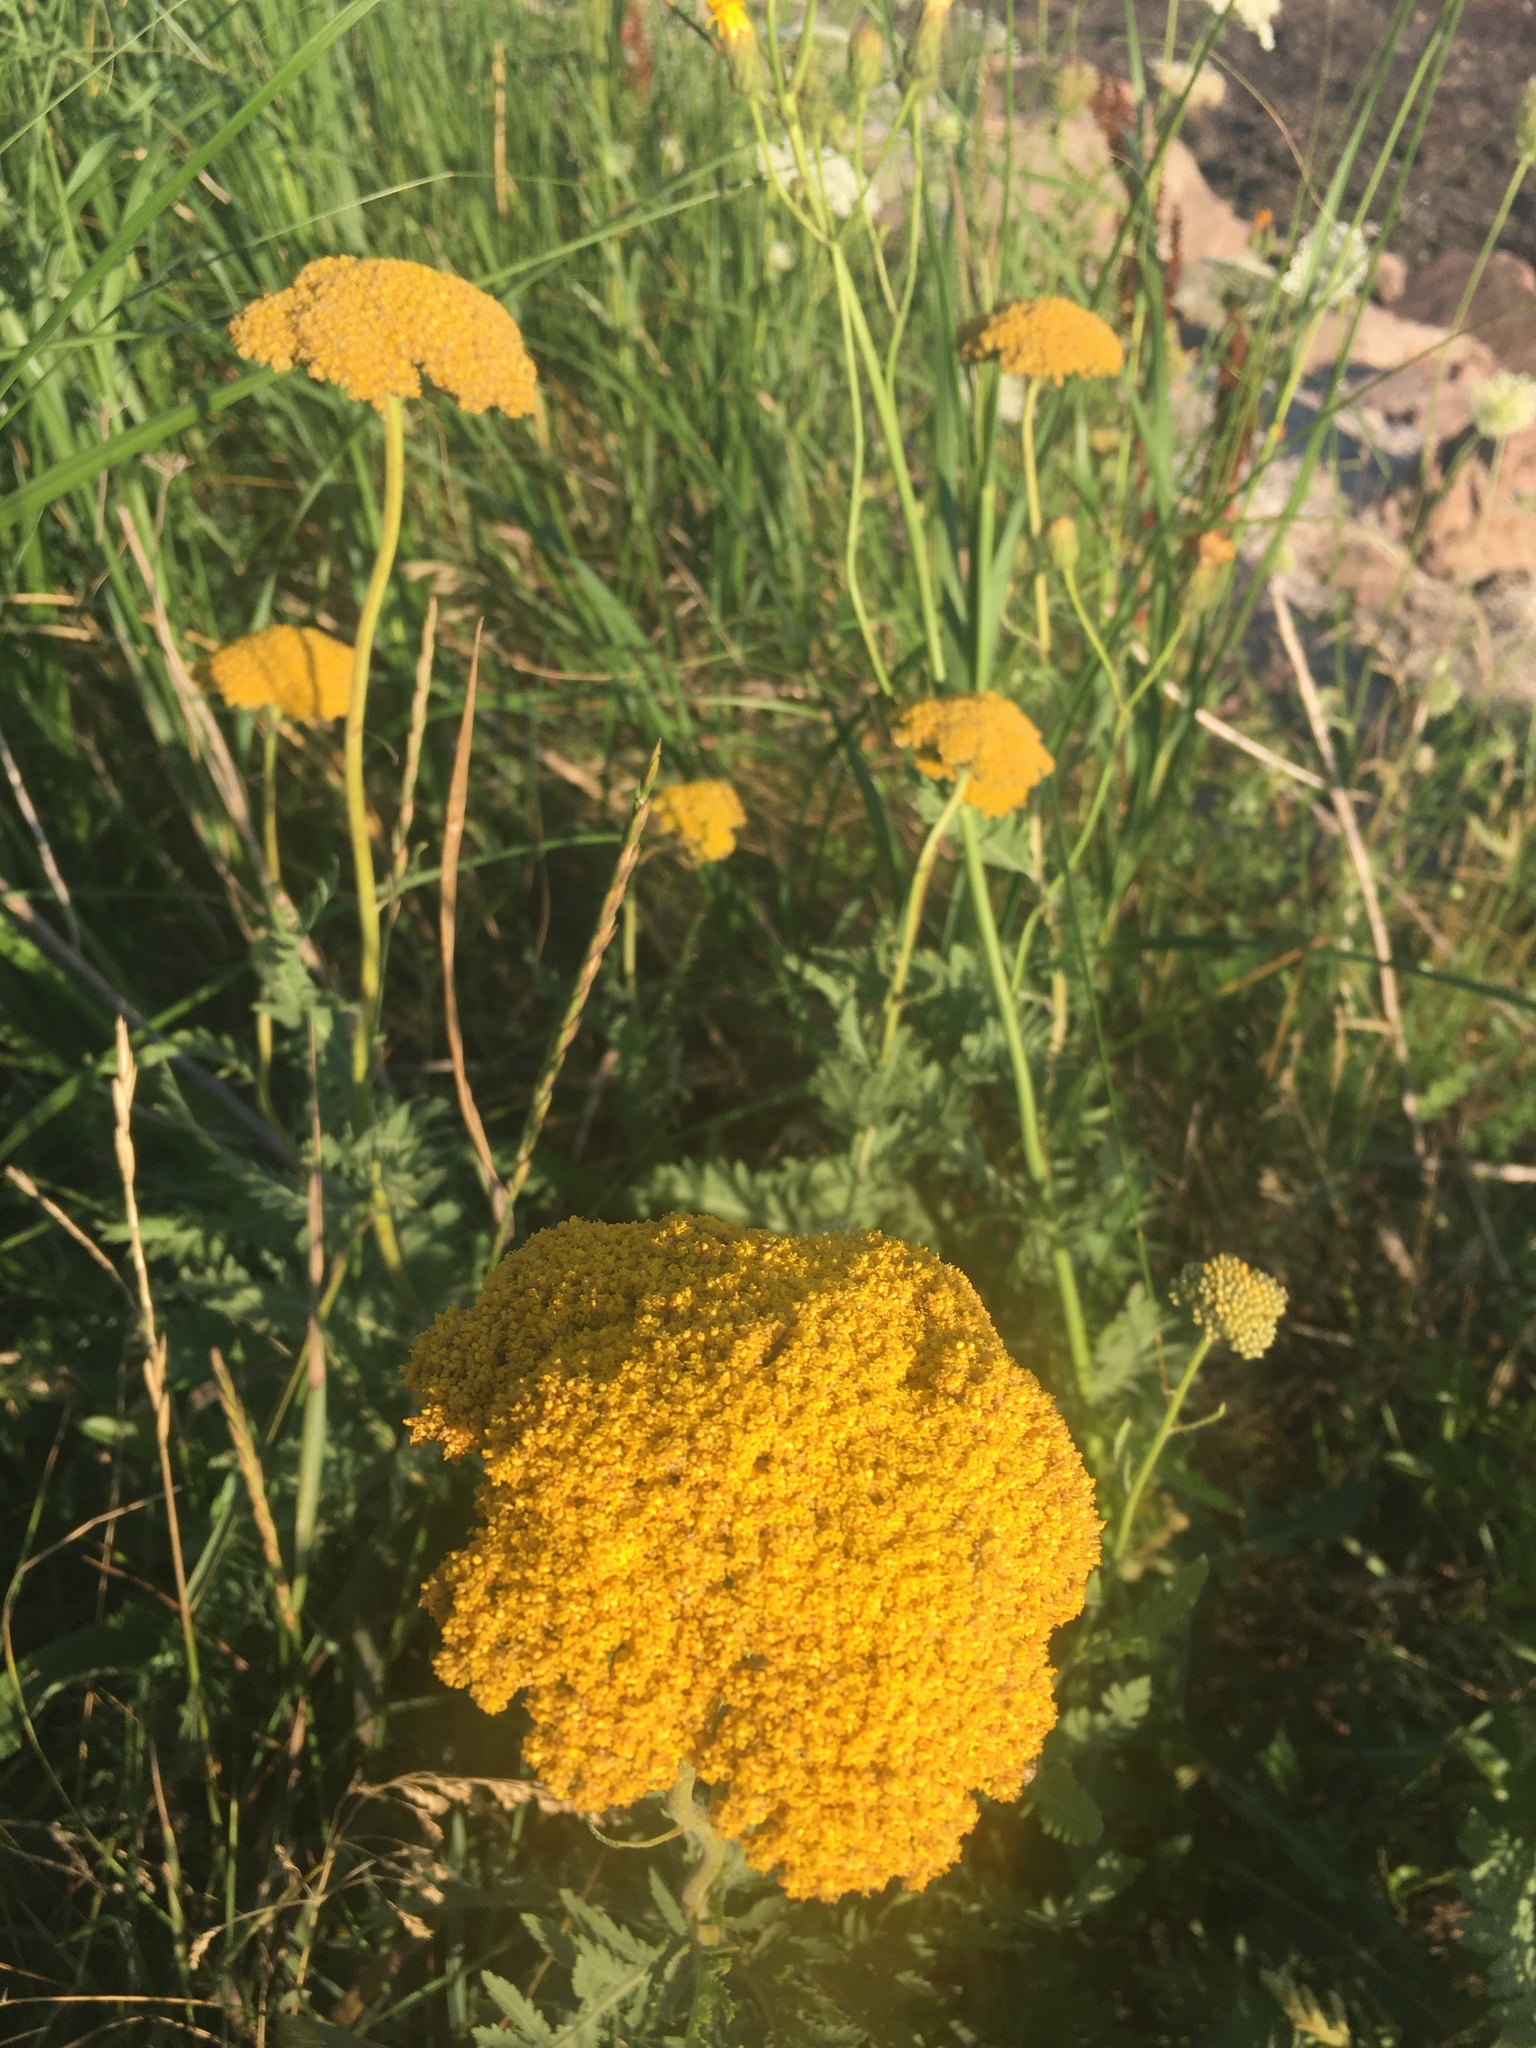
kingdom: Plantae
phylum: Tracheophyta
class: Magnoliopsida
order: Asterales
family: Asteraceae
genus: Achillea
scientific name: Achillea filipendulina
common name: Fernleaf yarrow
